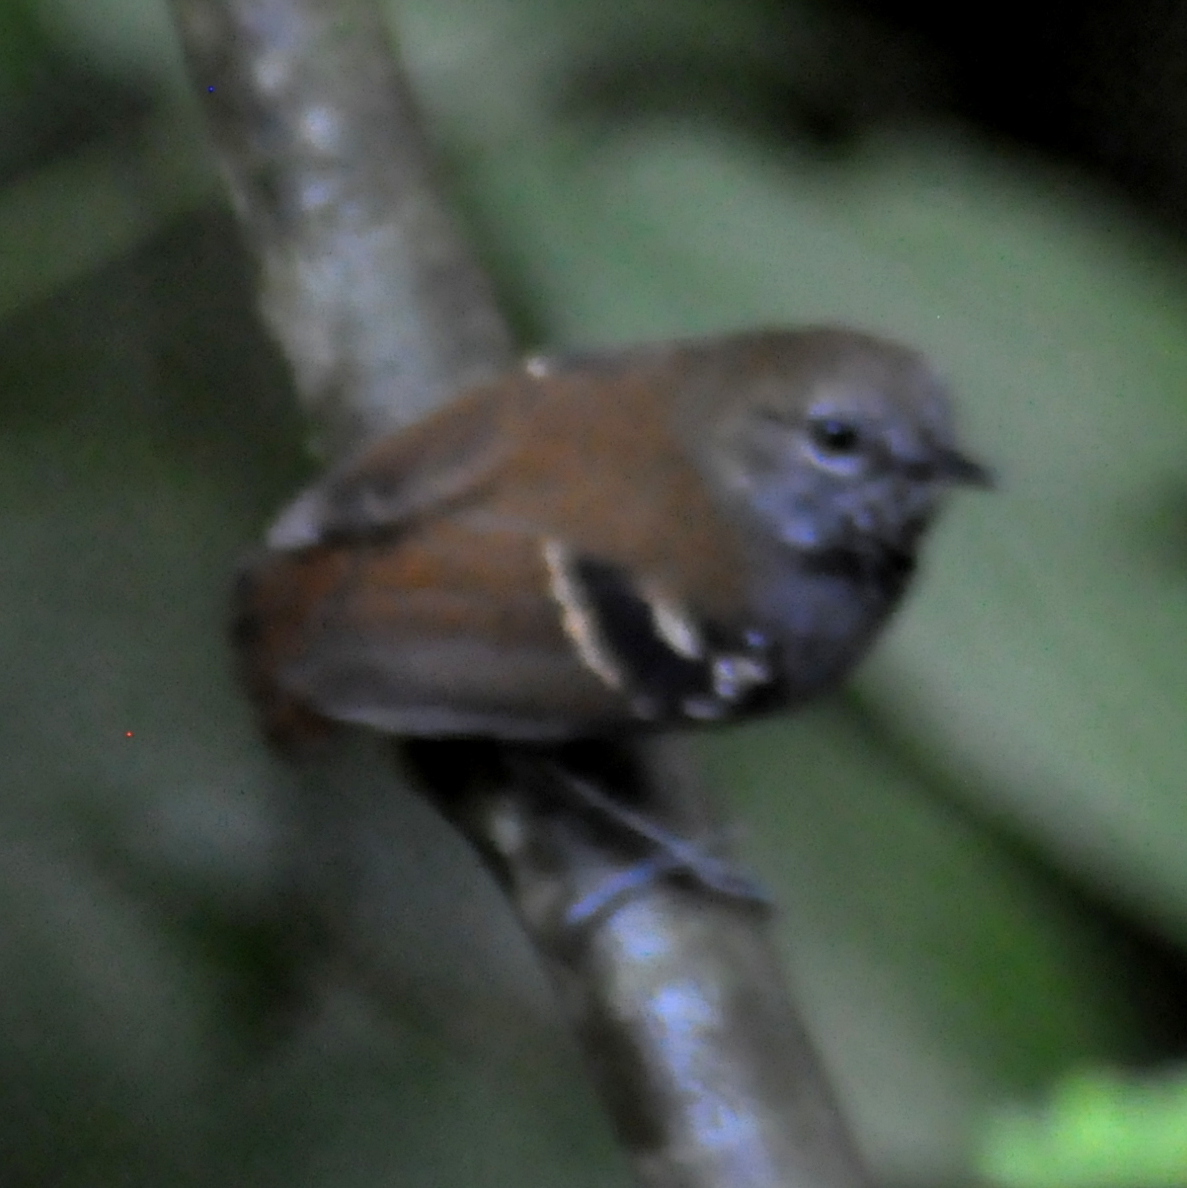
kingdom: Animalia
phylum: Chordata
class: Aves
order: Passeriformes
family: Thamnophilidae
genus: Rhopias
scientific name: Rhopias gularis
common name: Star-throated antwren
